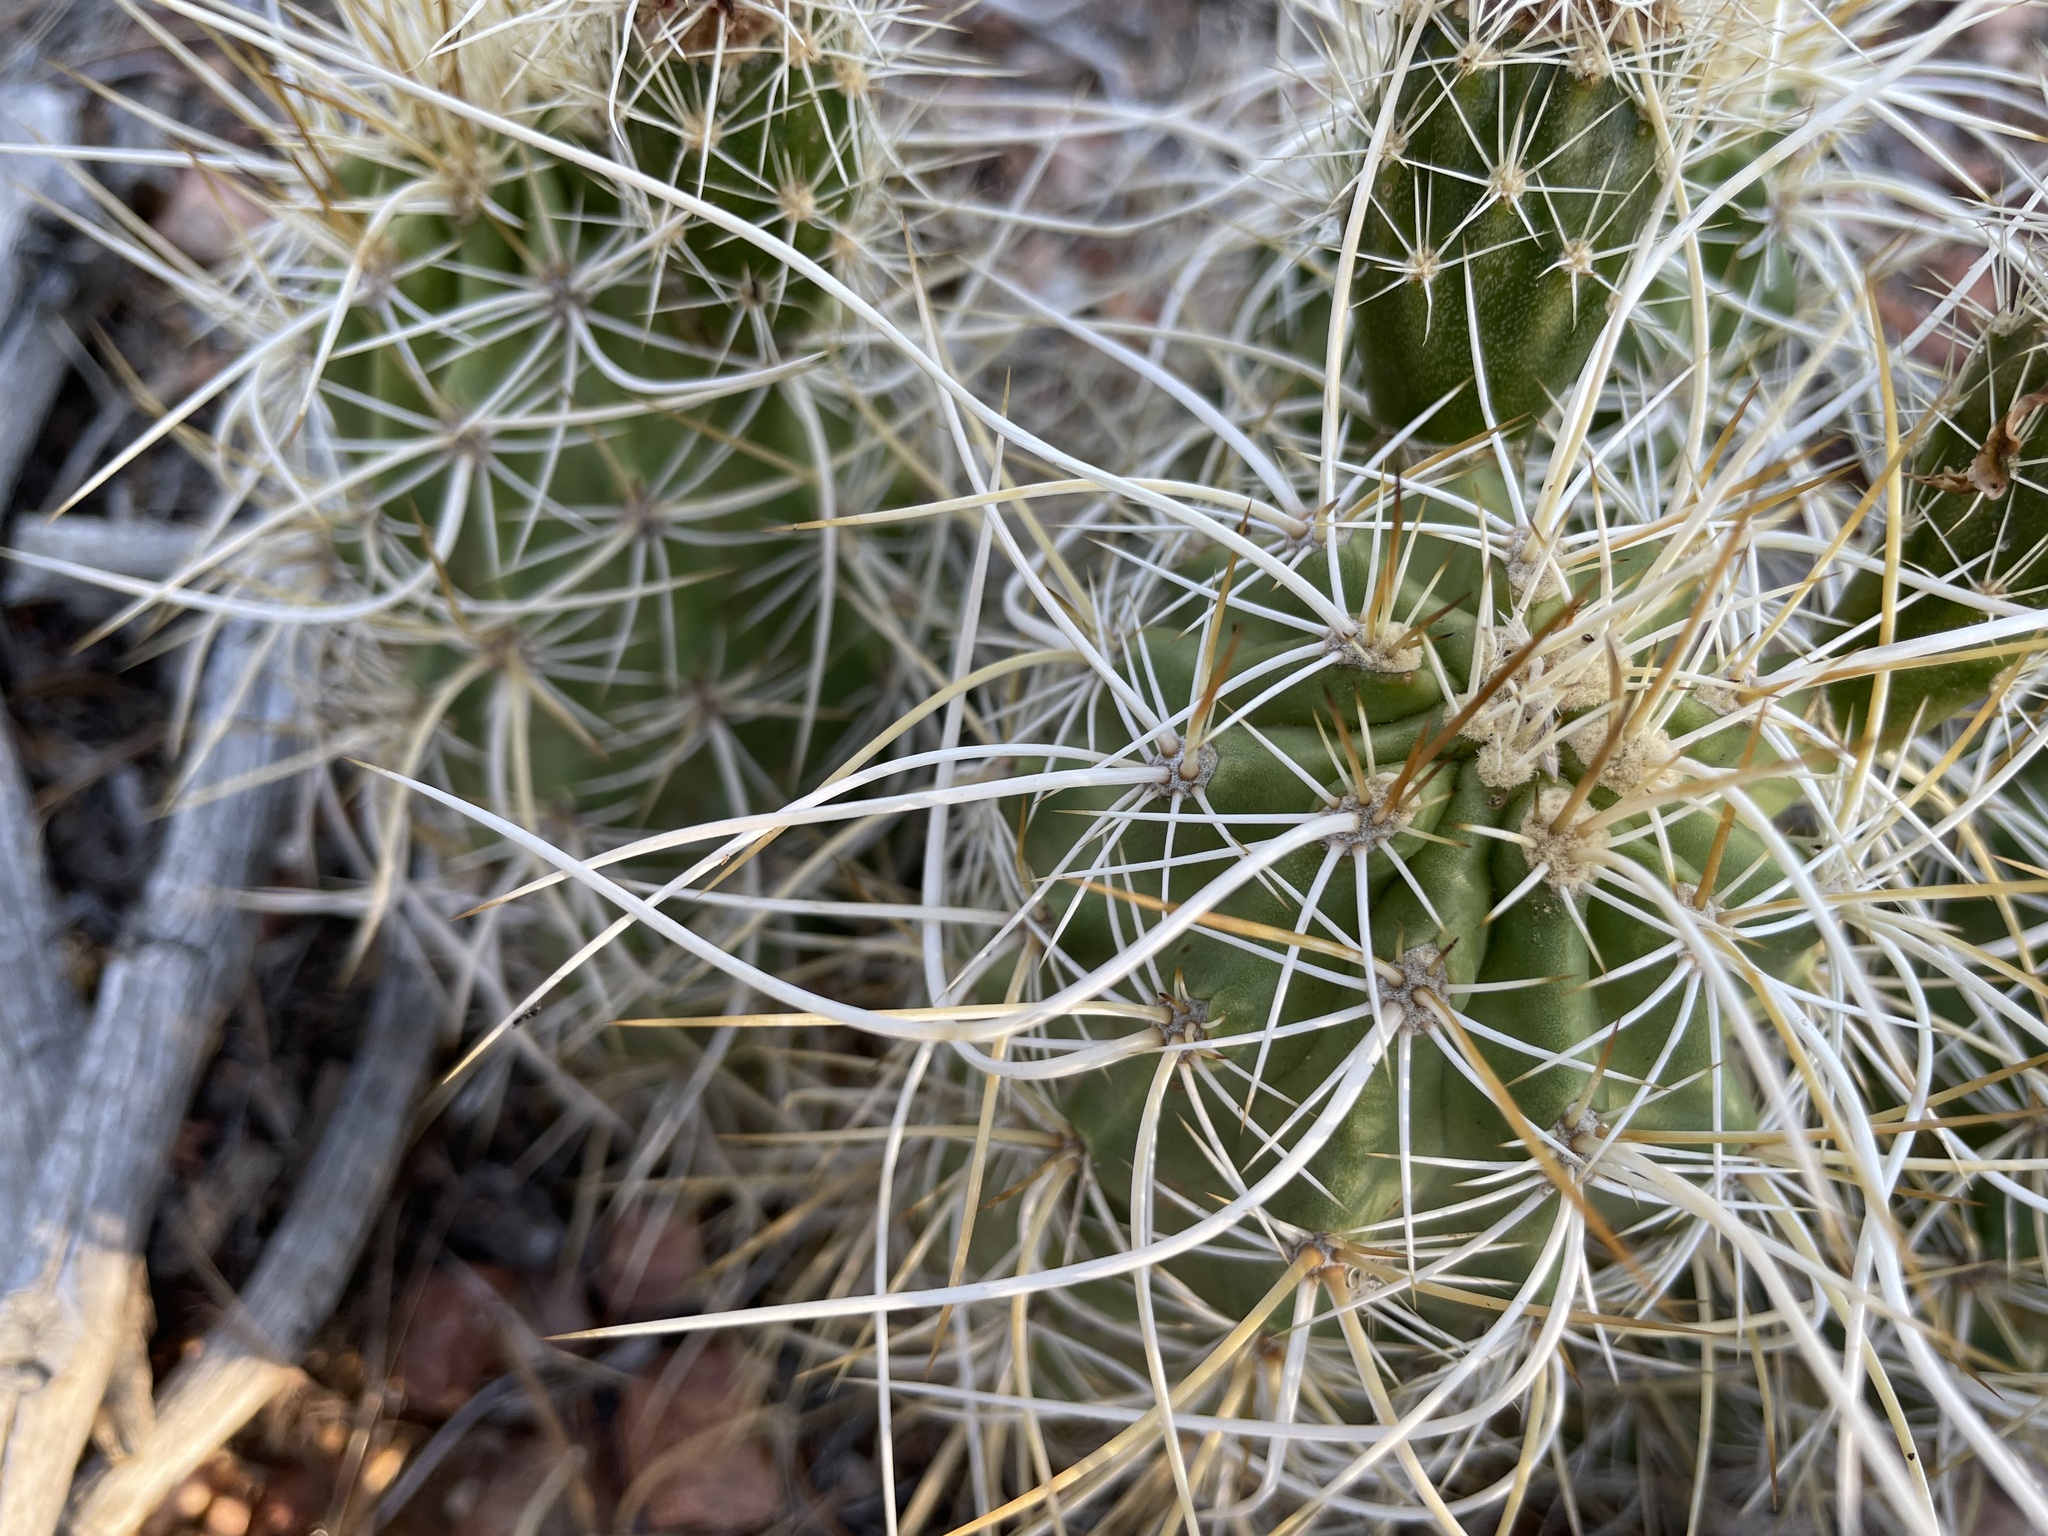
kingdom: Plantae
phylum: Tracheophyta
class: Magnoliopsida
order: Caryophyllales
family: Cactaceae
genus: Echinocereus
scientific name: Echinocereus engelmannii
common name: Engelmann's hedgehog cactus
